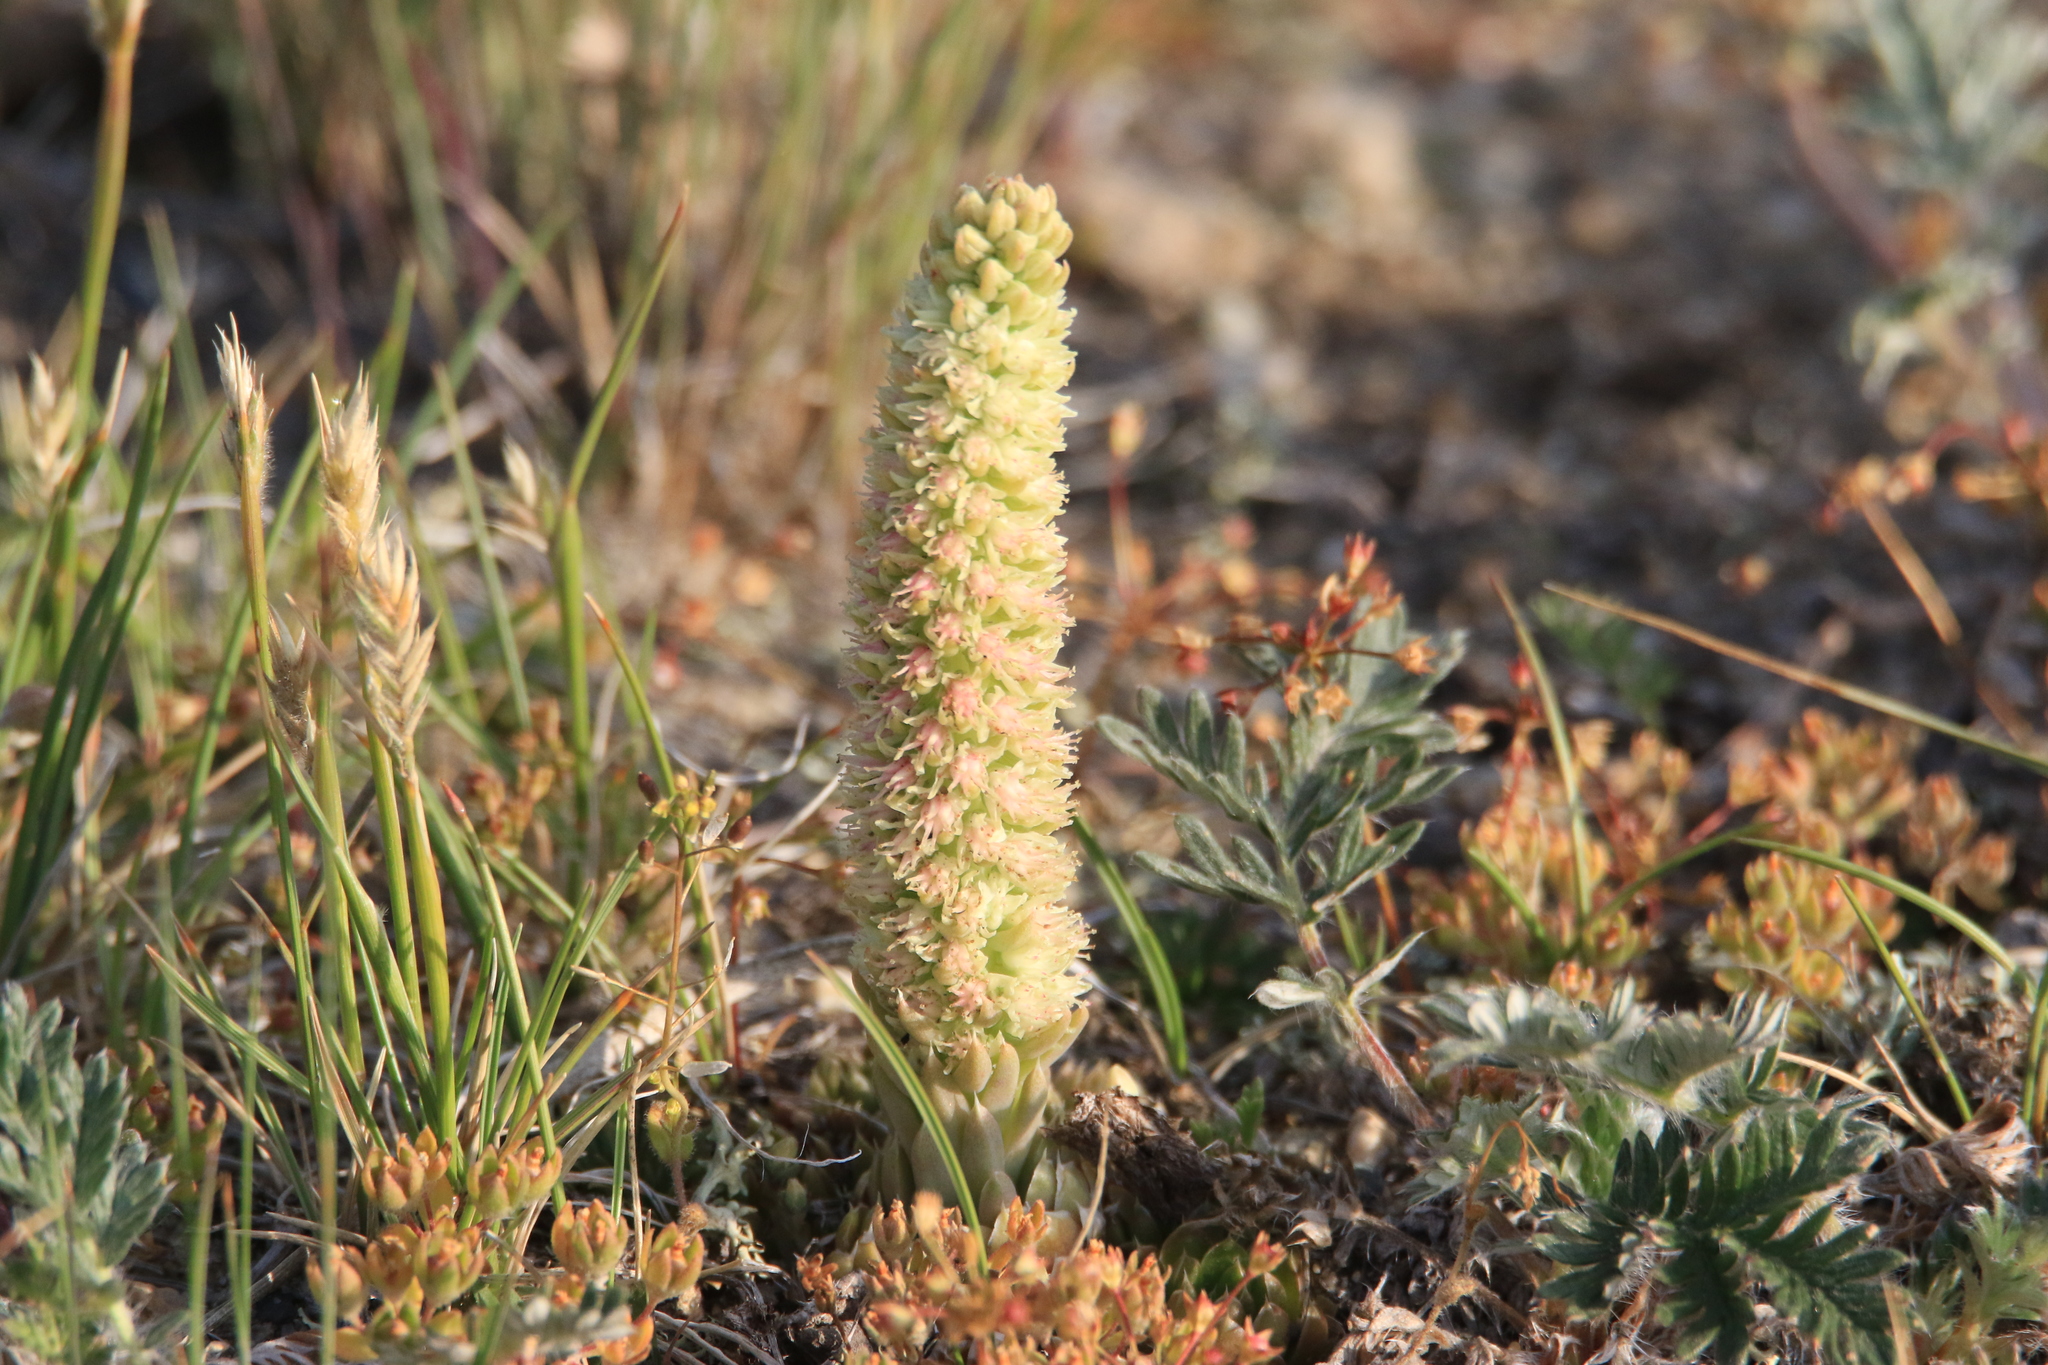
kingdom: Plantae
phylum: Tracheophyta
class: Magnoliopsida
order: Saxifragales
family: Crassulaceae
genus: Orostachys
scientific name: Orostachys spinosa
